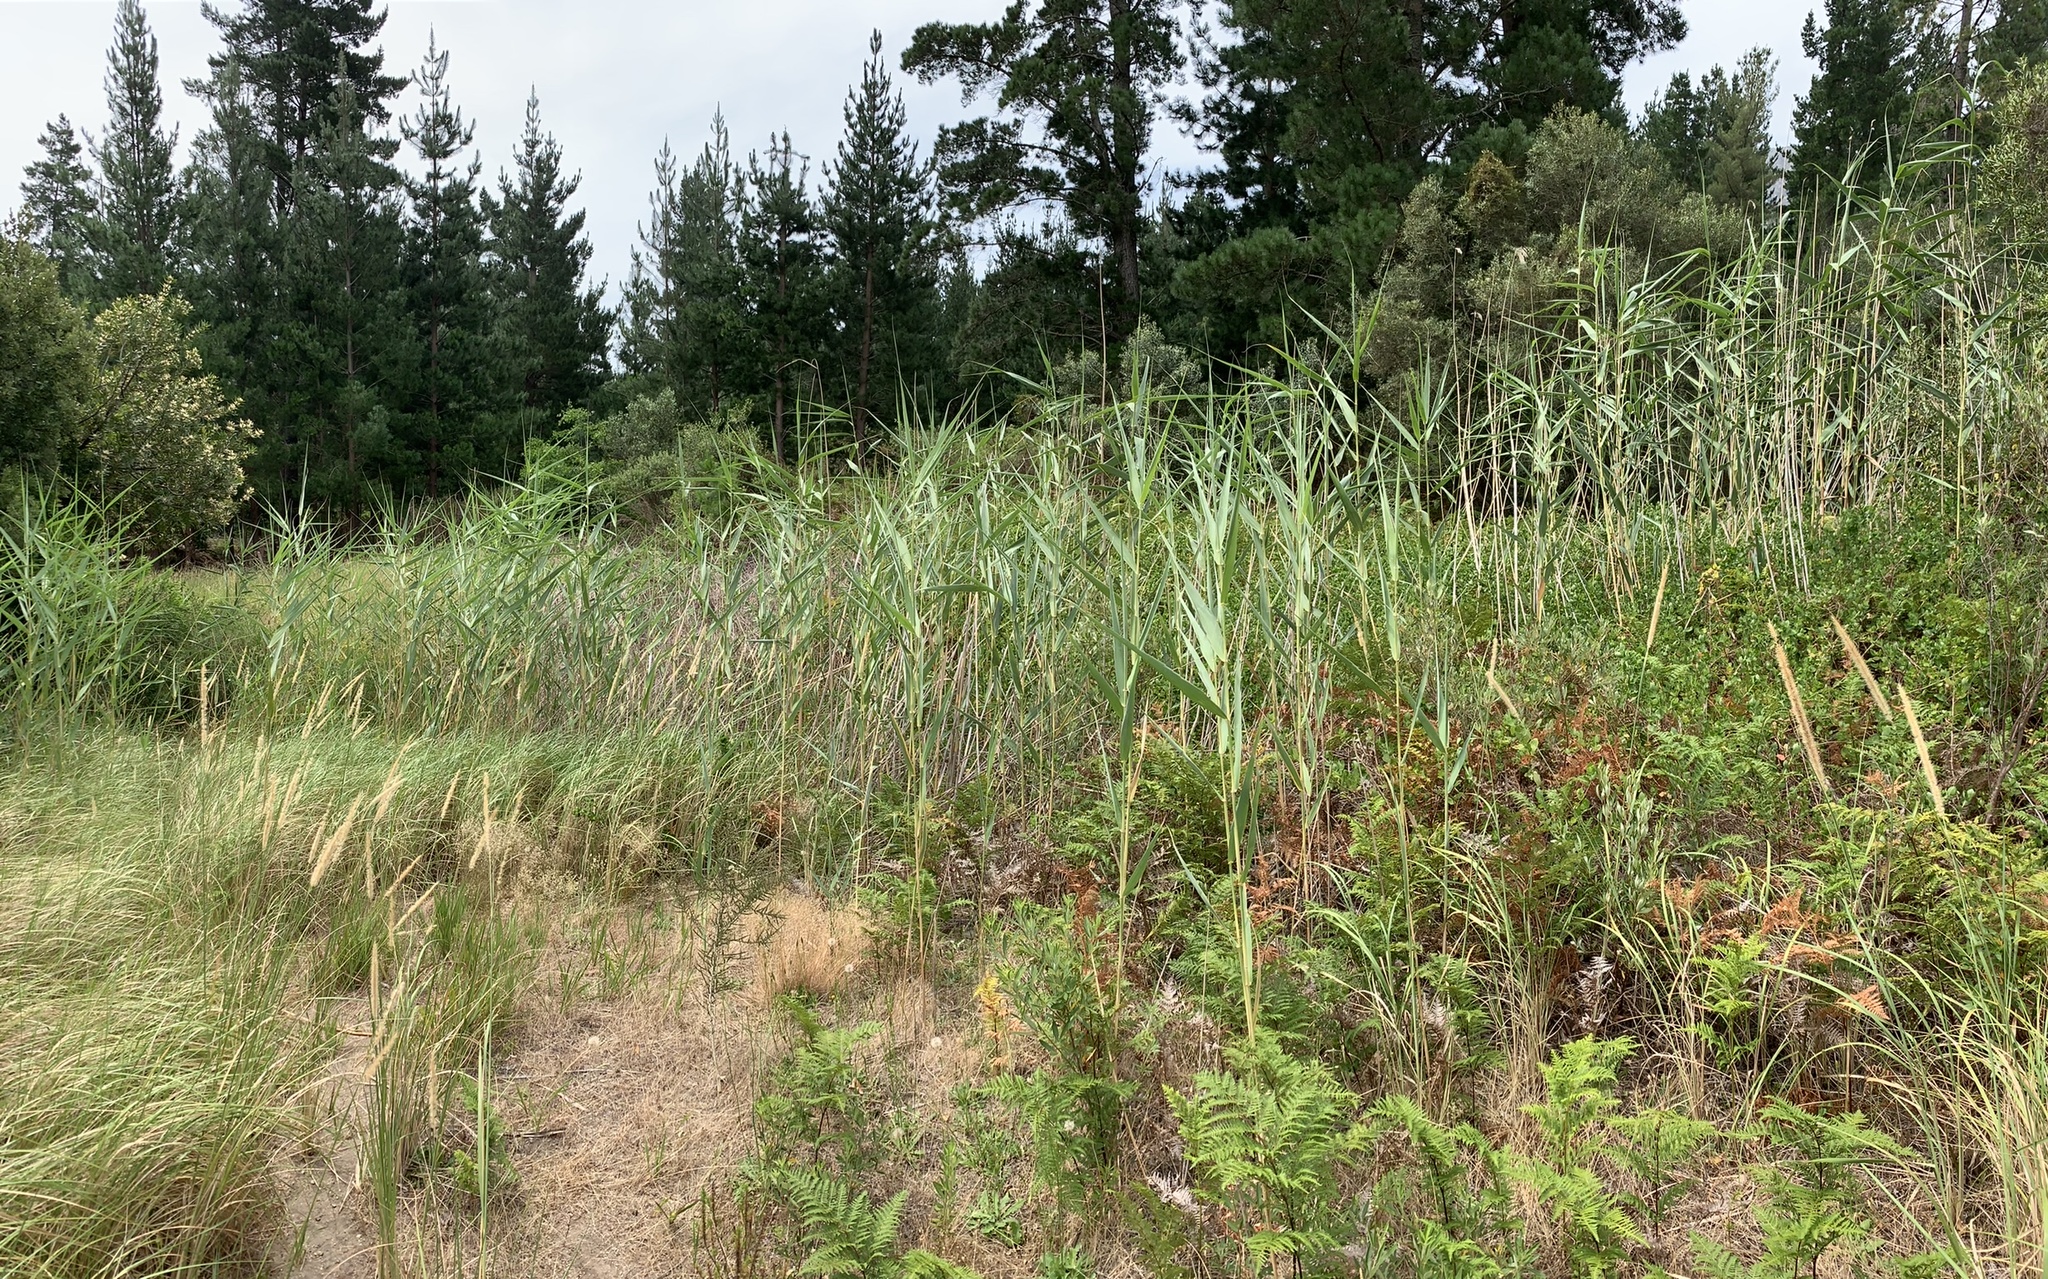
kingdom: Plantae
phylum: Tracheophyta
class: Liliopsida
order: Poales
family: Poaceae
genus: Phragmites
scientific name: Phragmites australis
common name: Common reed
